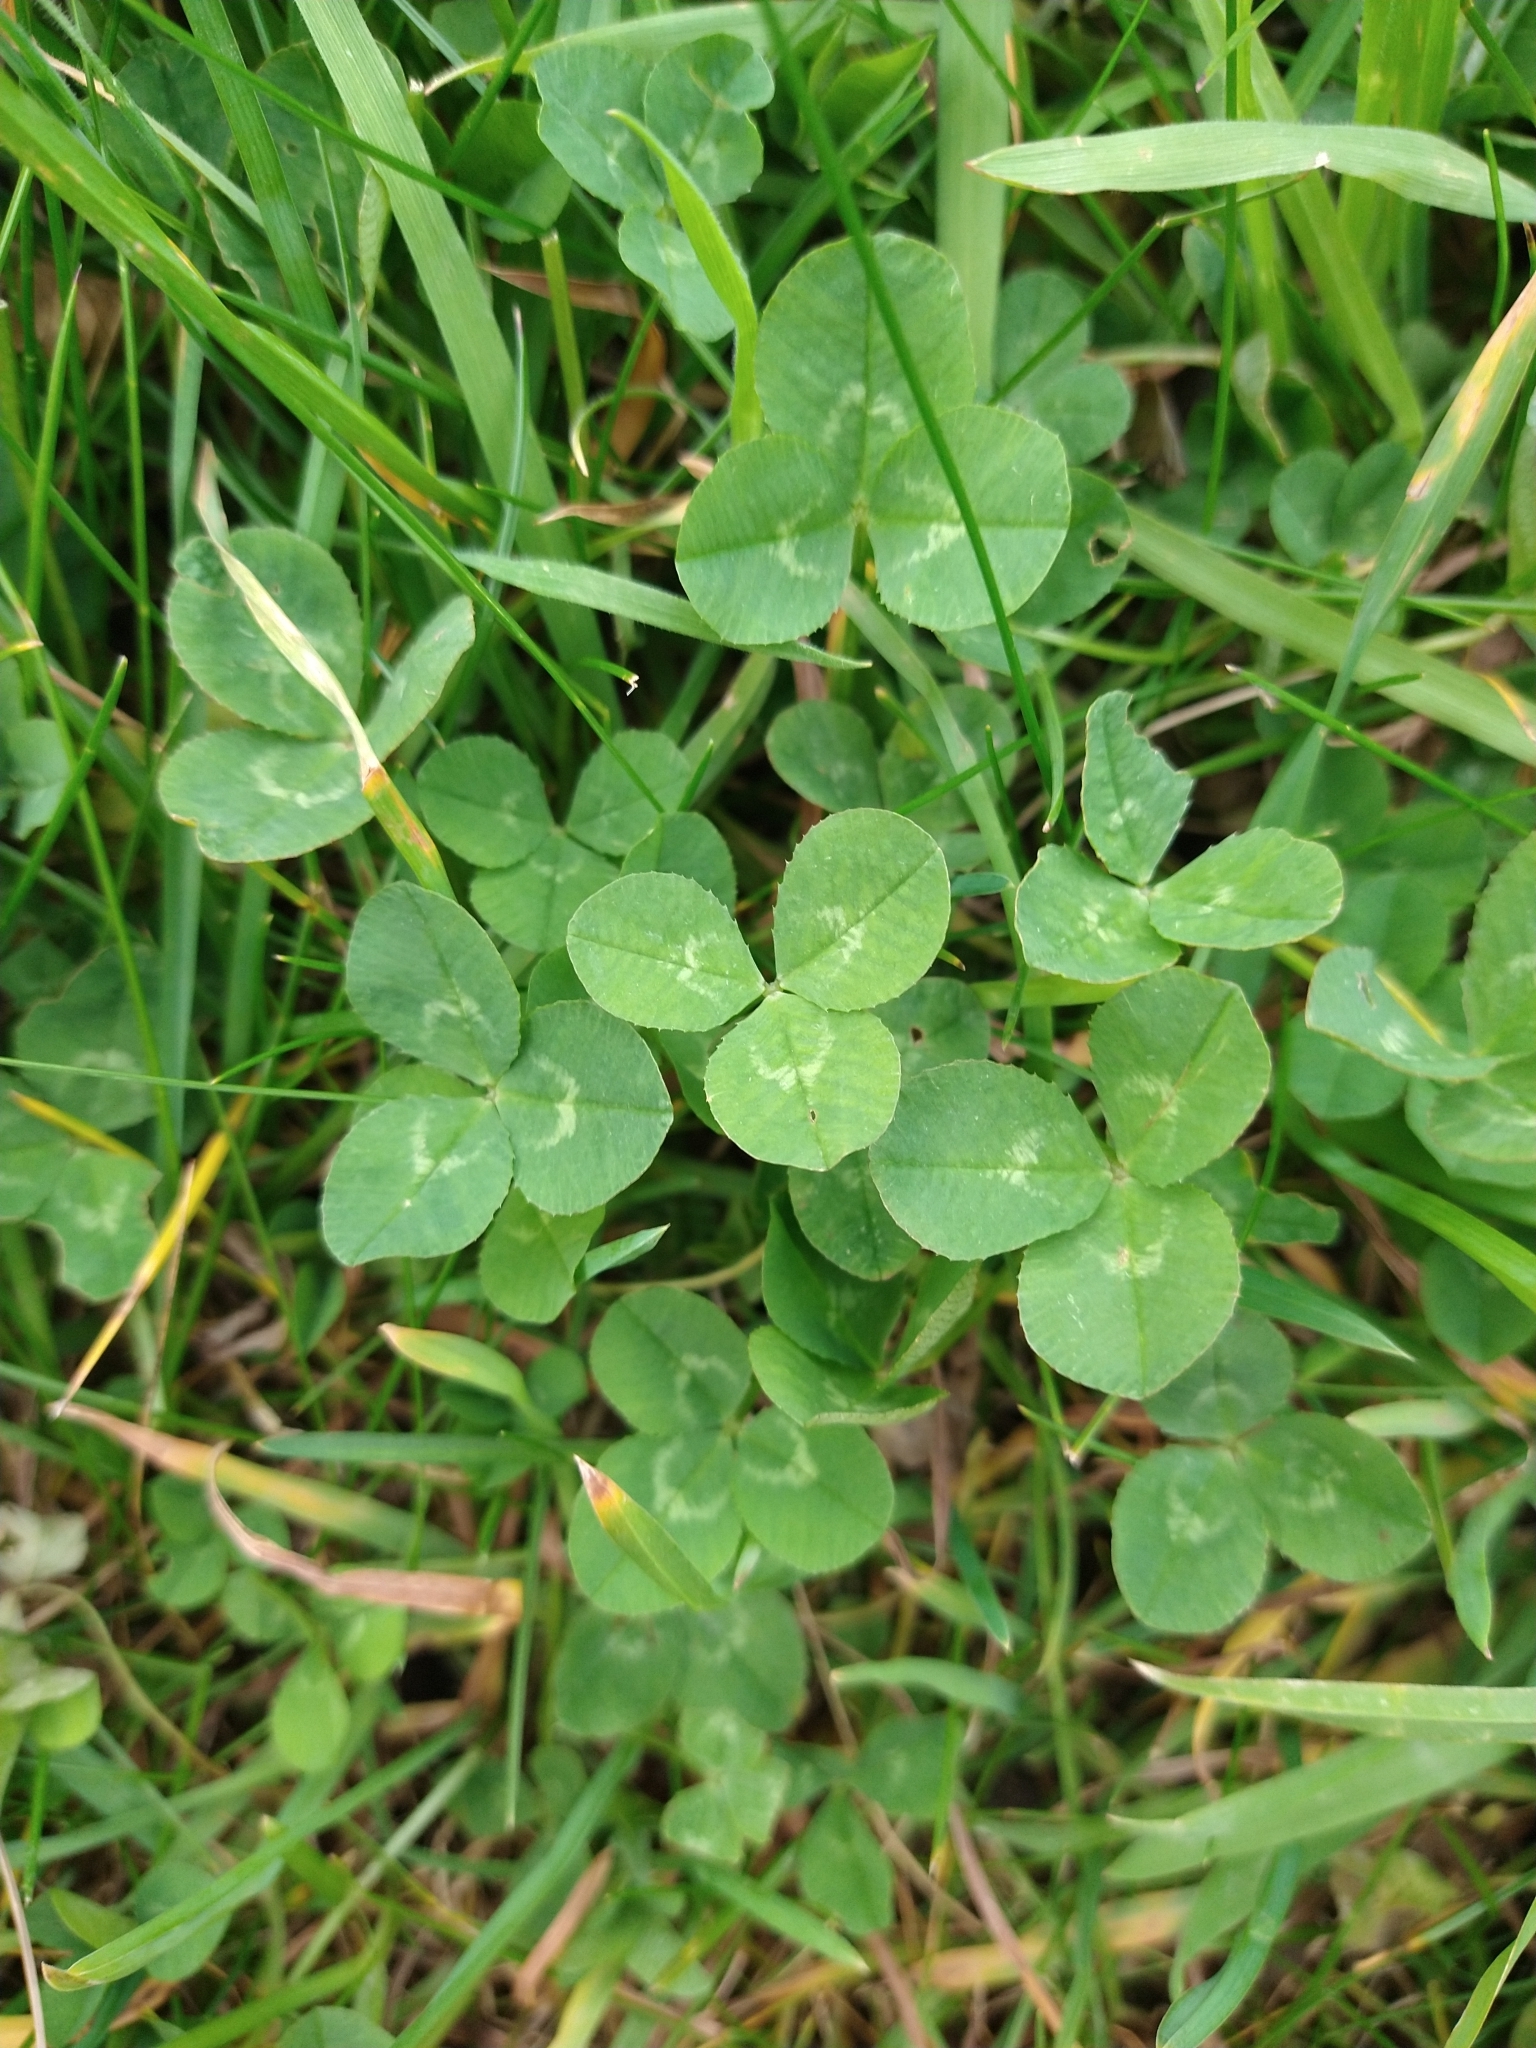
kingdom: Plantae
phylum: Tracheophyta
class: Magnoliopsida
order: Fabales
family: Fabaceae
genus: Trifolium
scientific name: Trifolium repens
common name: White clover
